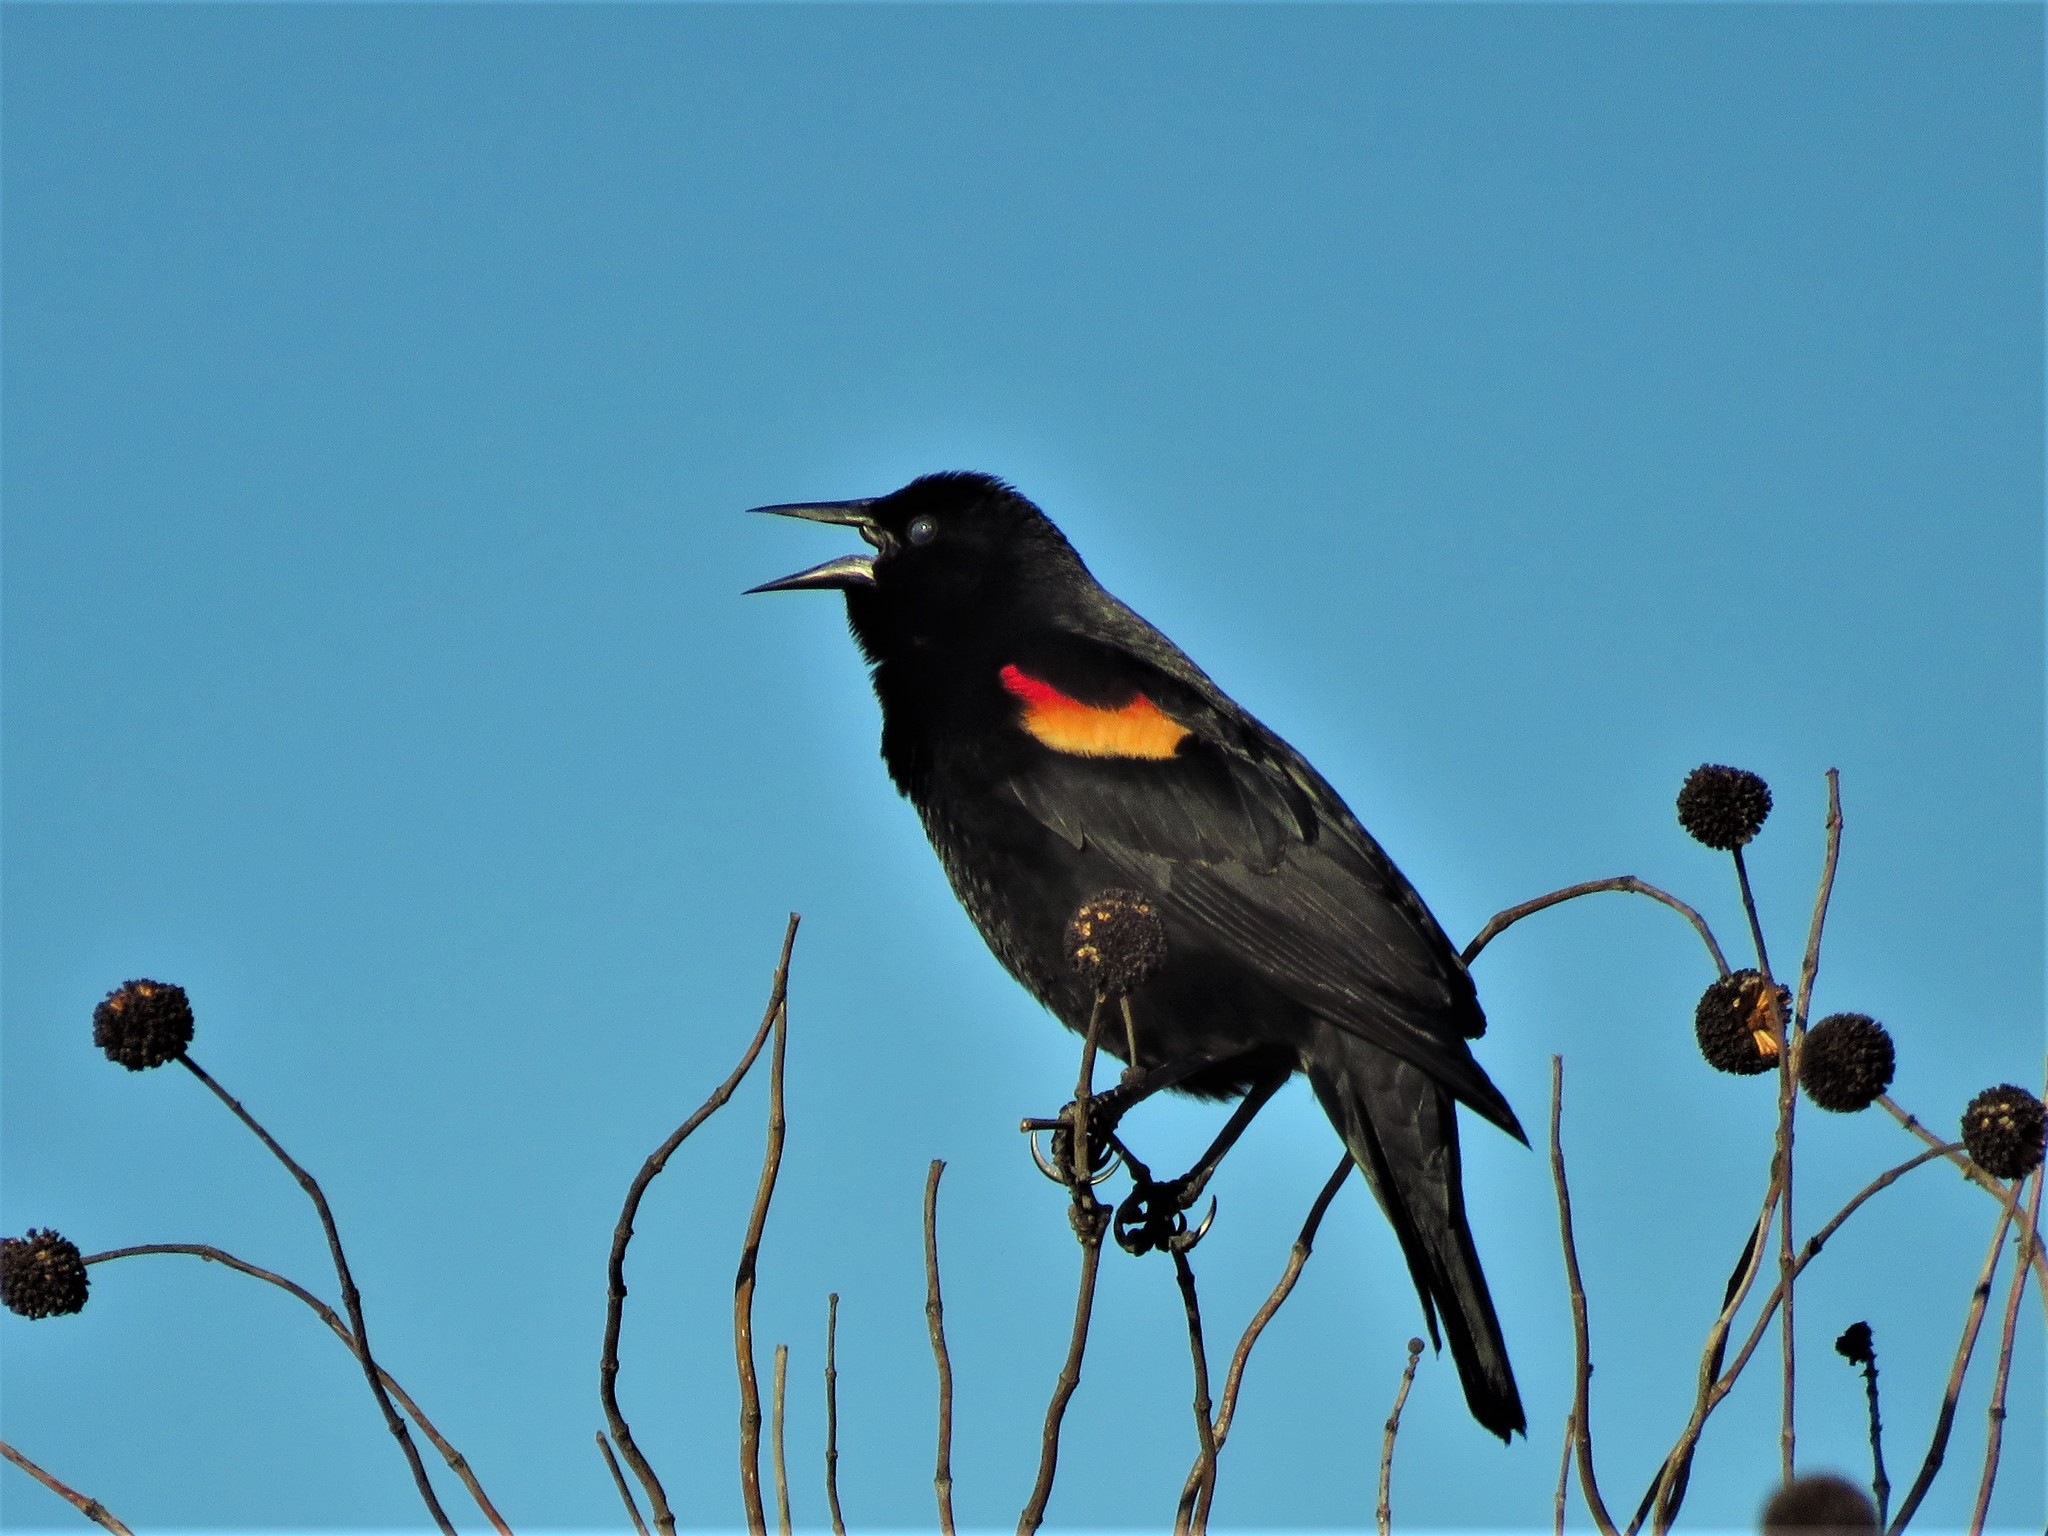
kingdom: Animalia
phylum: Chordata
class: Aves
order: Passeriformes
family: Icteridae
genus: Agelaius
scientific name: Agelaius phoeniceus
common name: Red-winged blackbird
